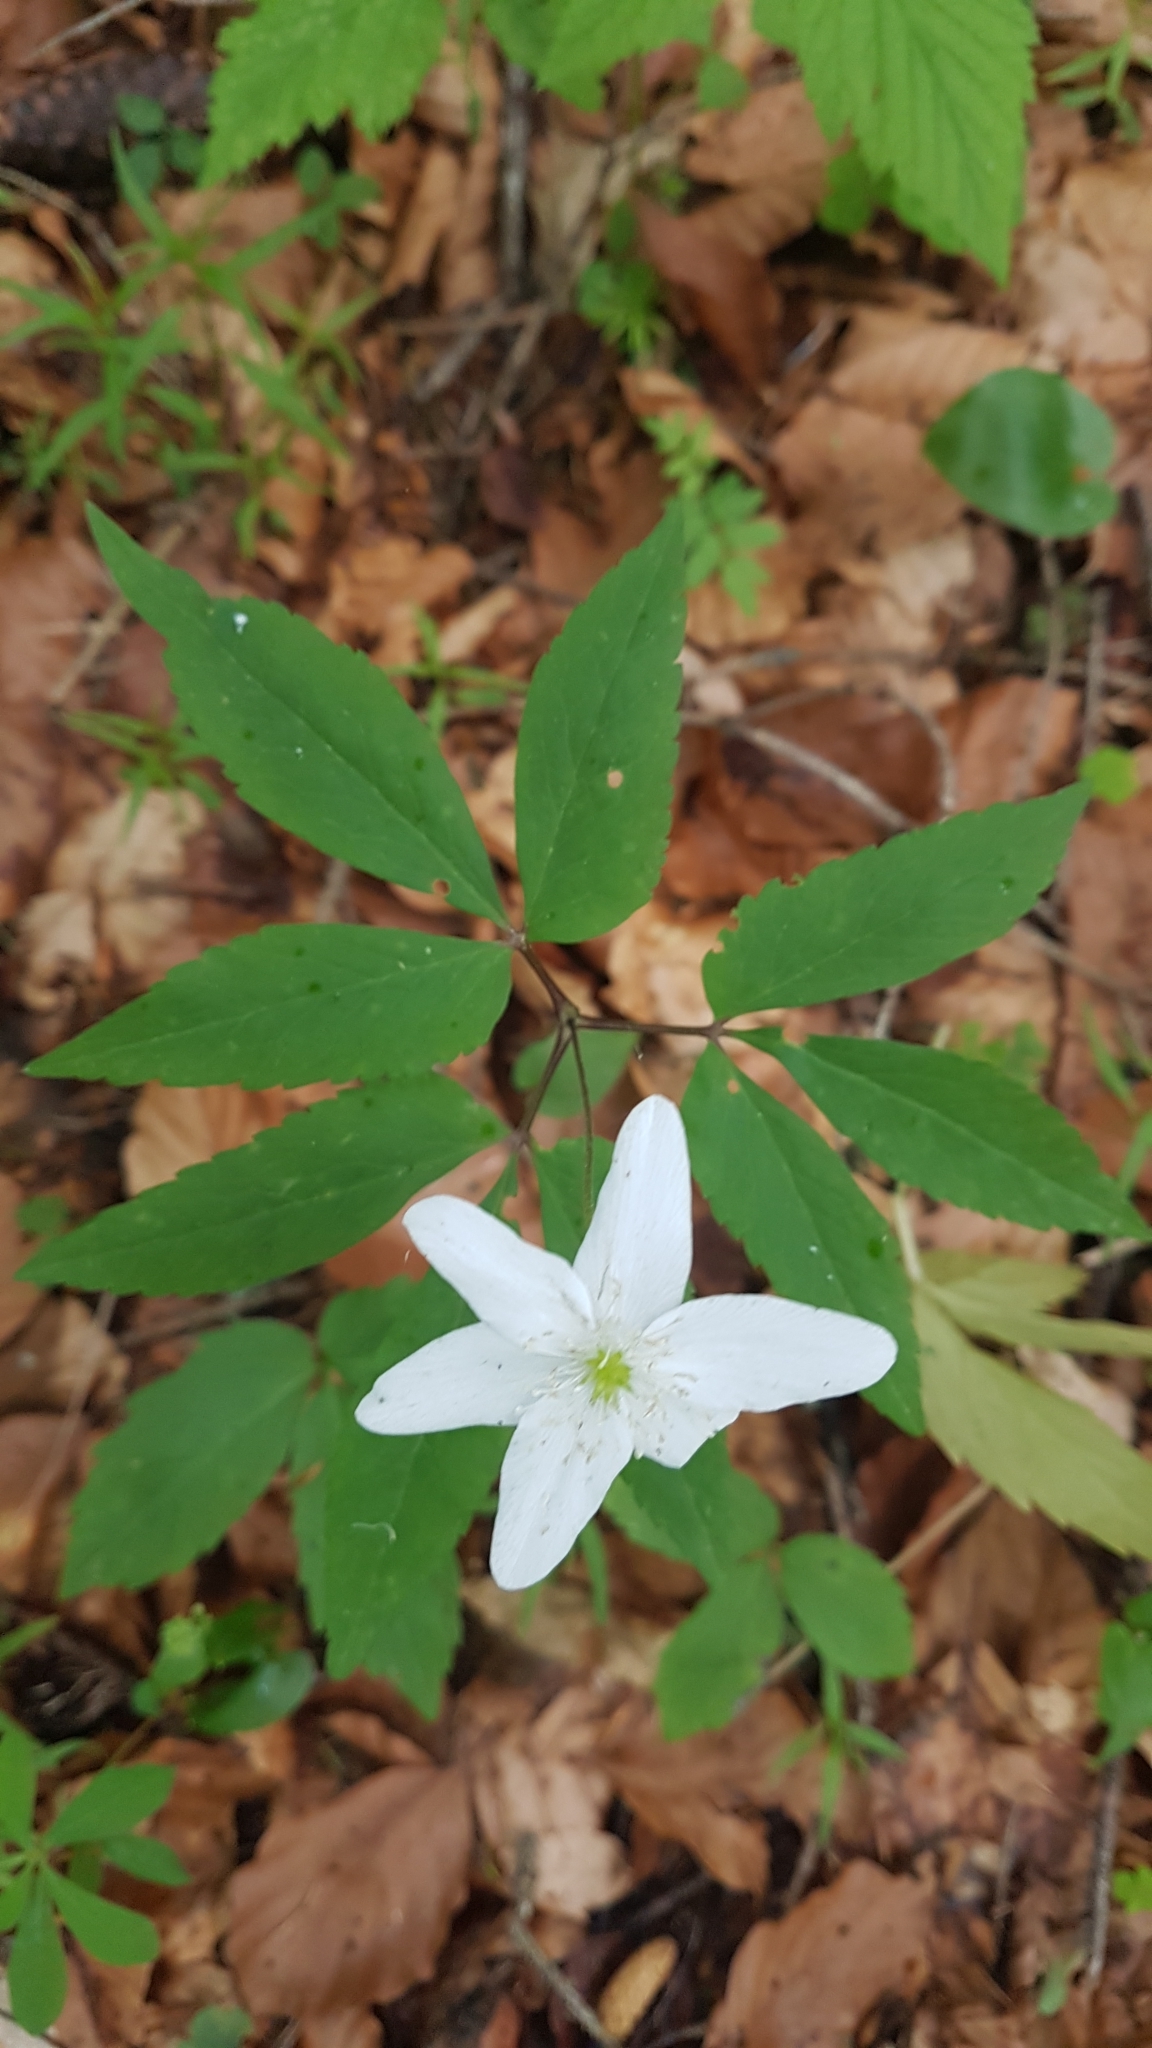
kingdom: Plantae
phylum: Tracheophyta
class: Magnoliopsida
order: Ranunculales
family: Ranunculaceae
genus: Anemone
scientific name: Anemone trifolia
